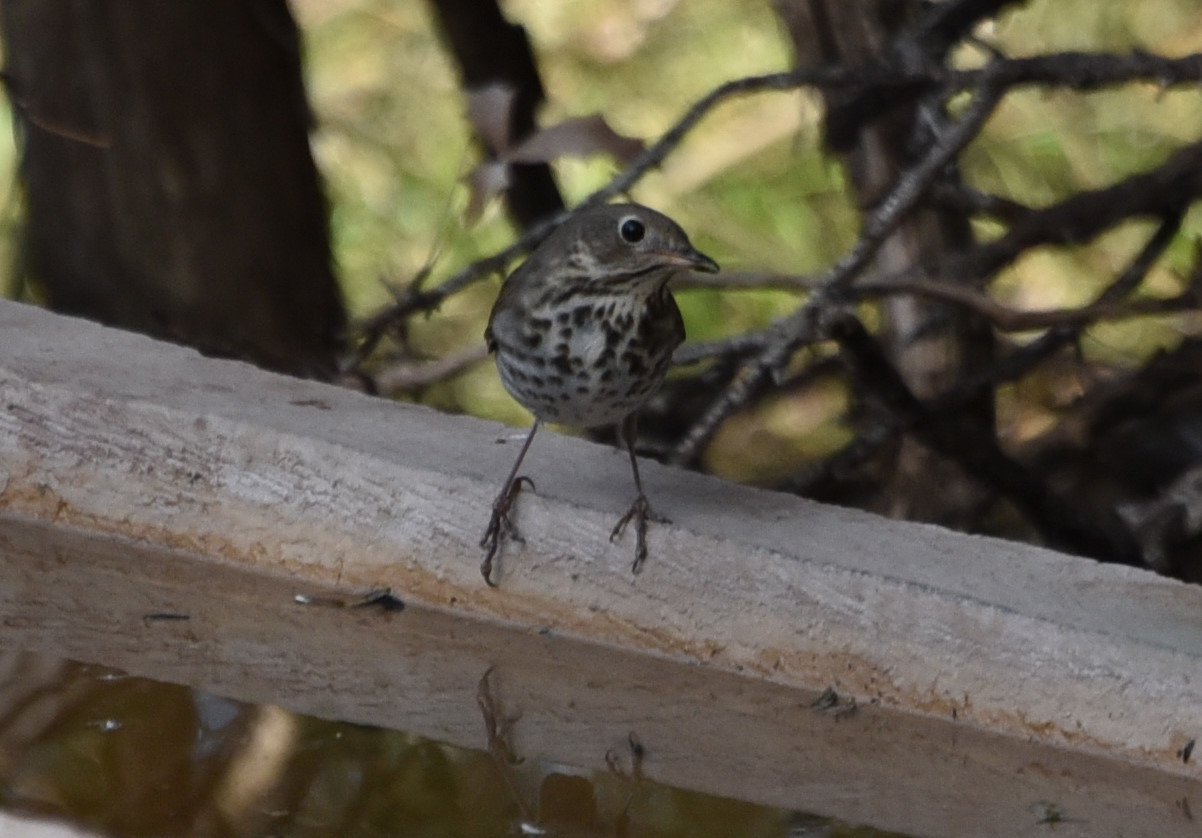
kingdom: Animalia
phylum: Chordata
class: Aves
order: Passeriformes
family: Turdidae
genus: Catharus
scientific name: Catharus guttatus
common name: Hermit thrush
